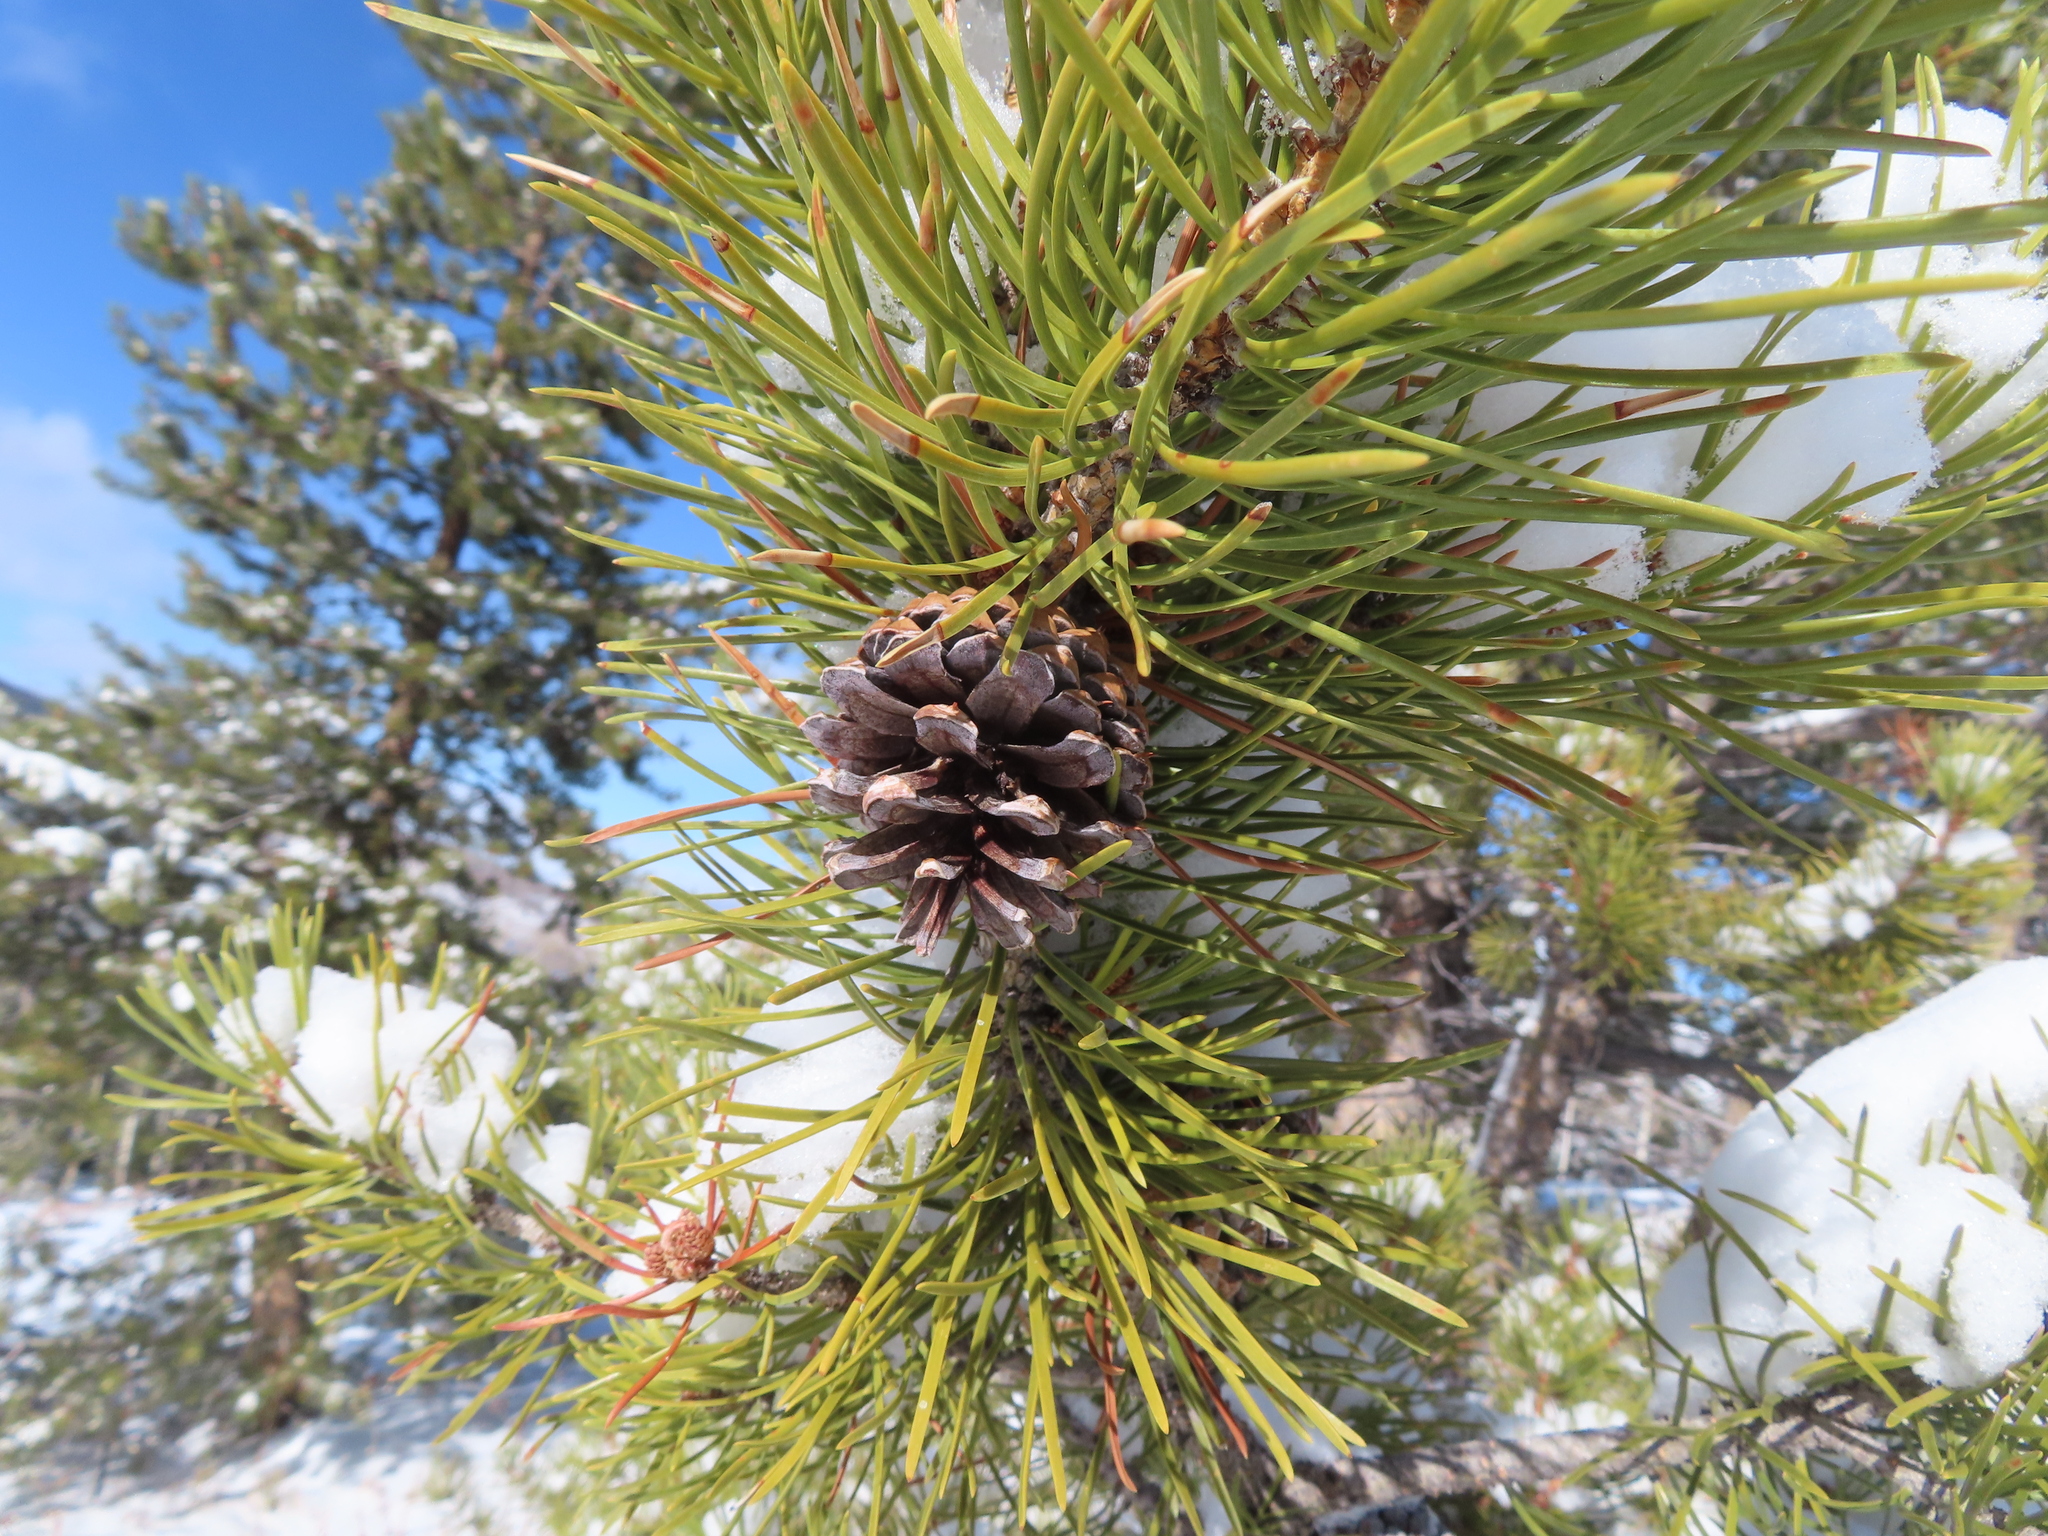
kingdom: Plantae
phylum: Tracheophyta
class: Pinopsida
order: Pinales
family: Pinaceae
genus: Pinus
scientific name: Pinus contorta
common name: Lodgepole pine
